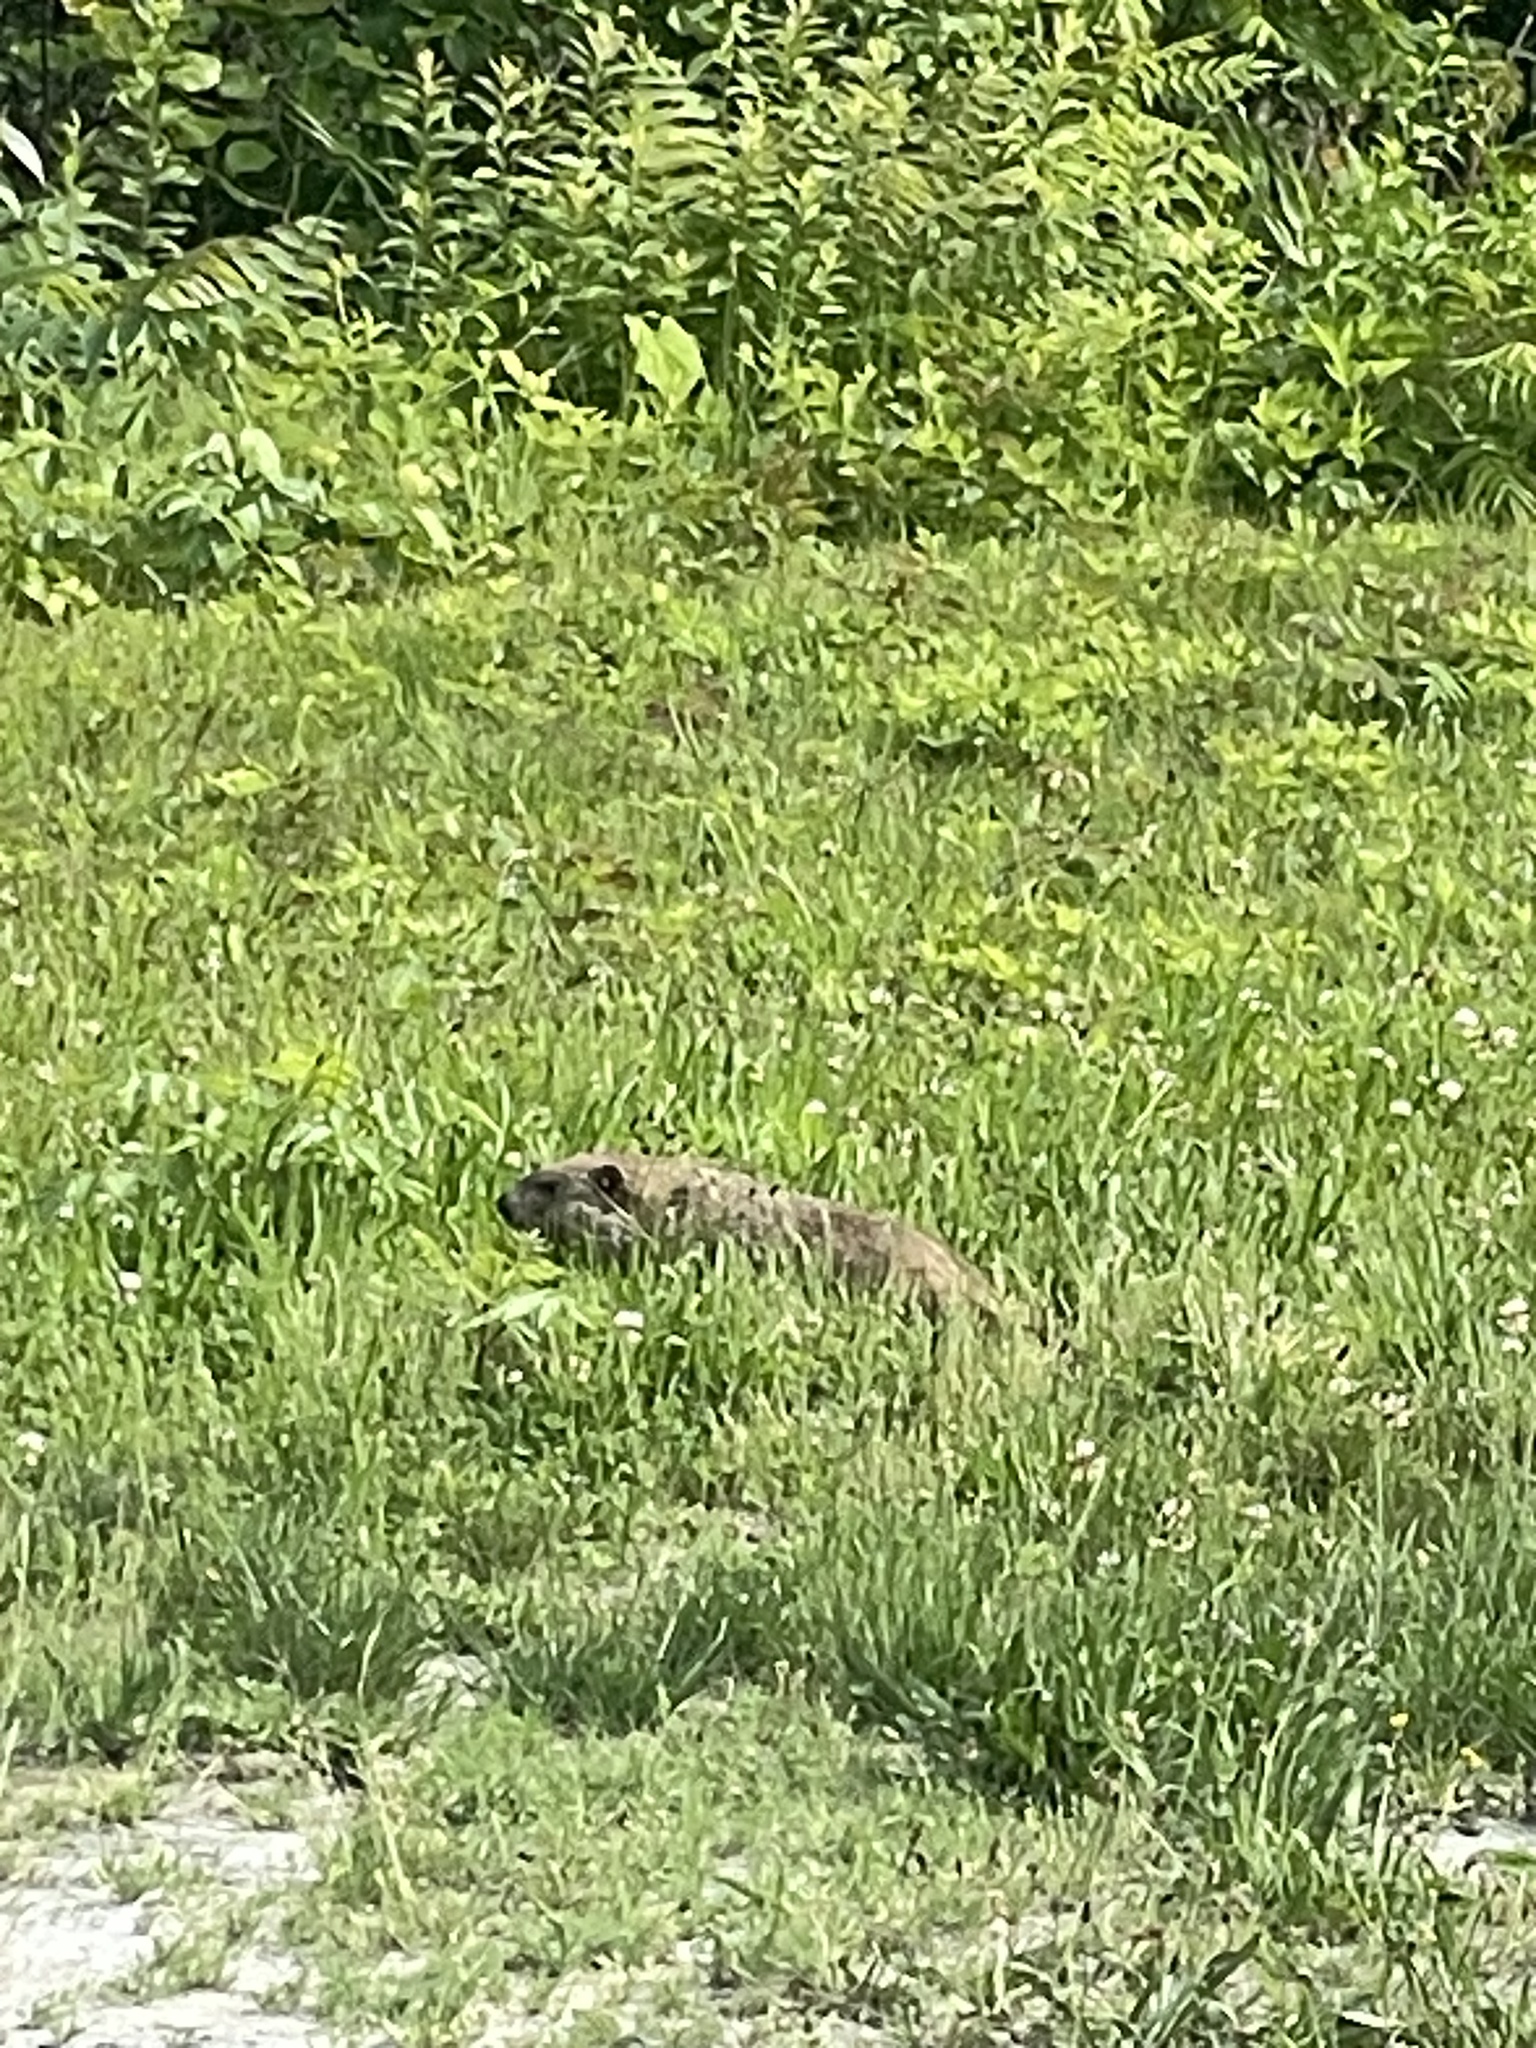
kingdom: Animalia
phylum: Chordata
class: Mammalia
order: Rodentia
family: Sciuridae
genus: Marmota
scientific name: Marmota monax
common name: Groundhog
